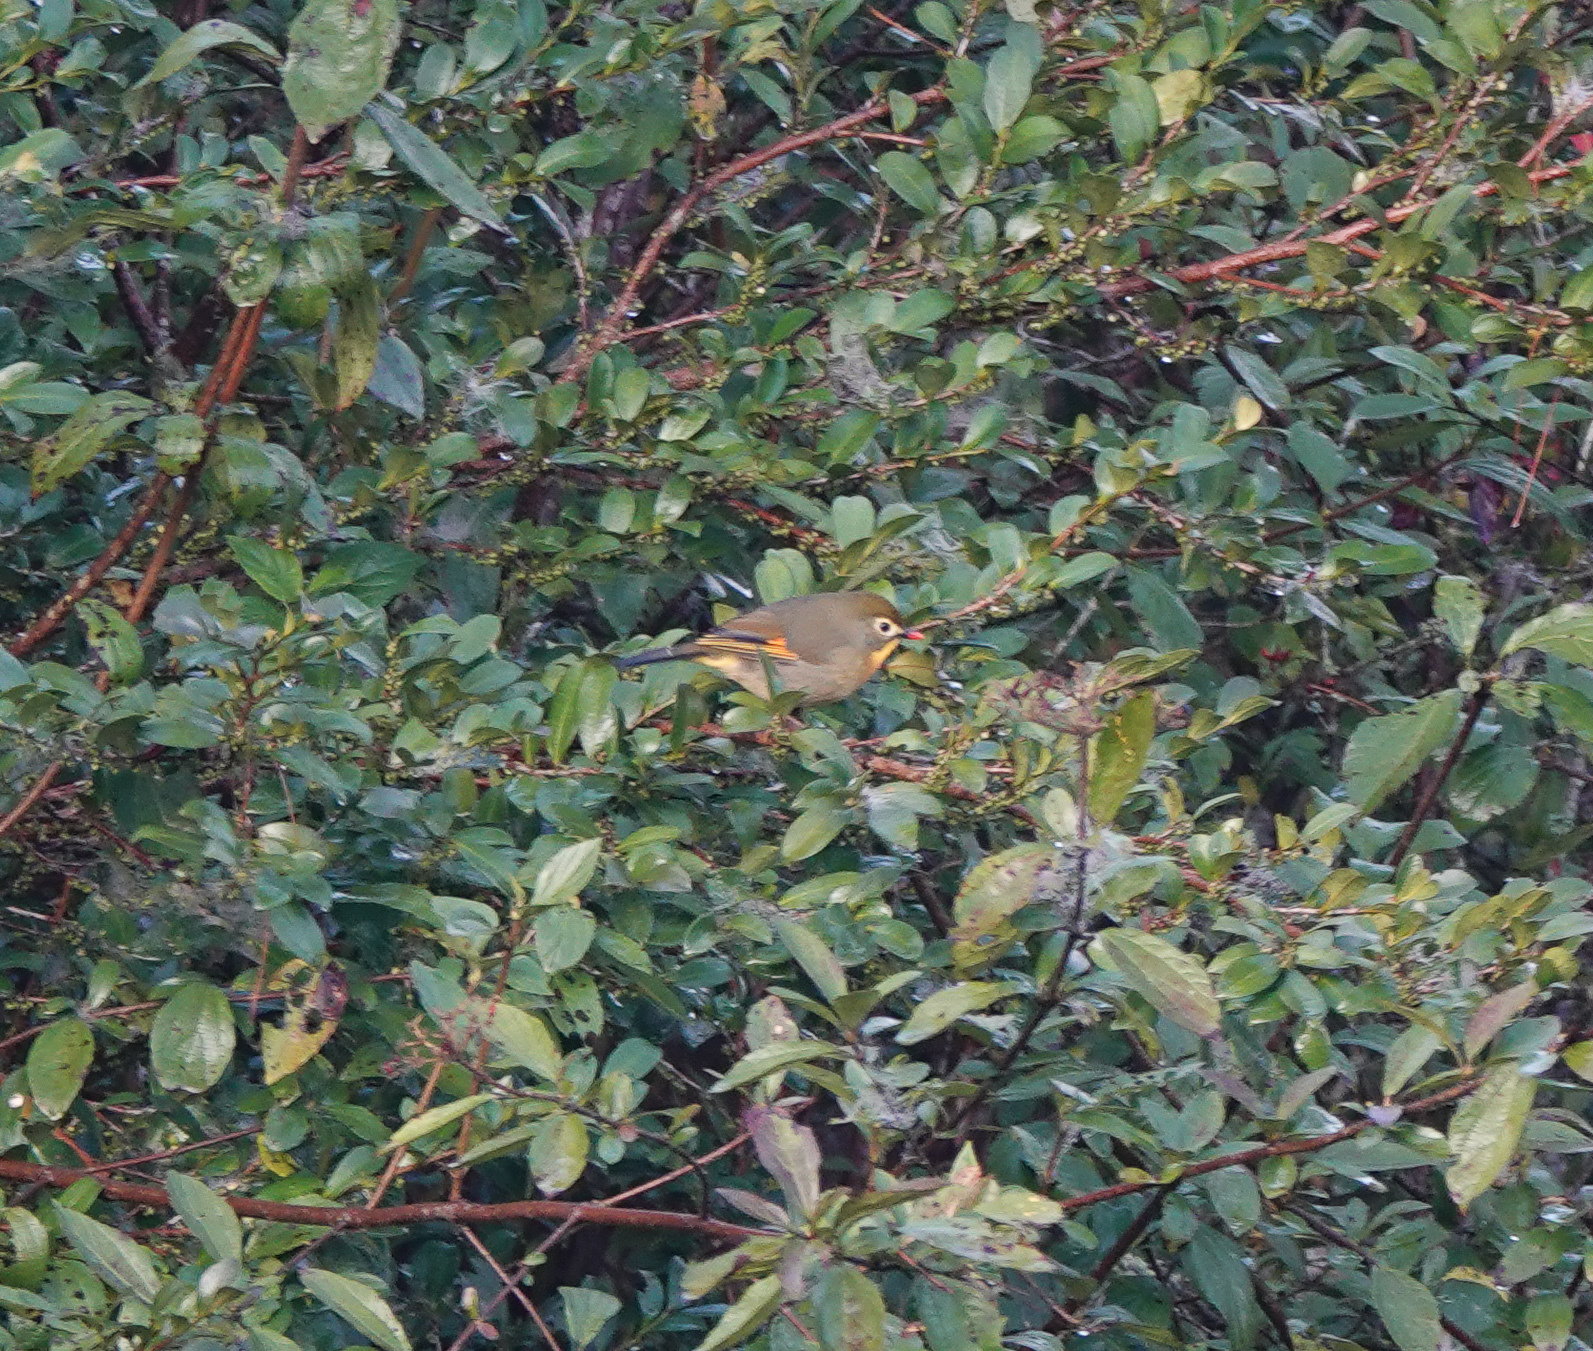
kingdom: Animalia
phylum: Chordata
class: Aves
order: Passeriformes
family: Leiothrichidae
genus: Leiothrix
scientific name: Leiothrix lutea
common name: Red-billed leiothrix
